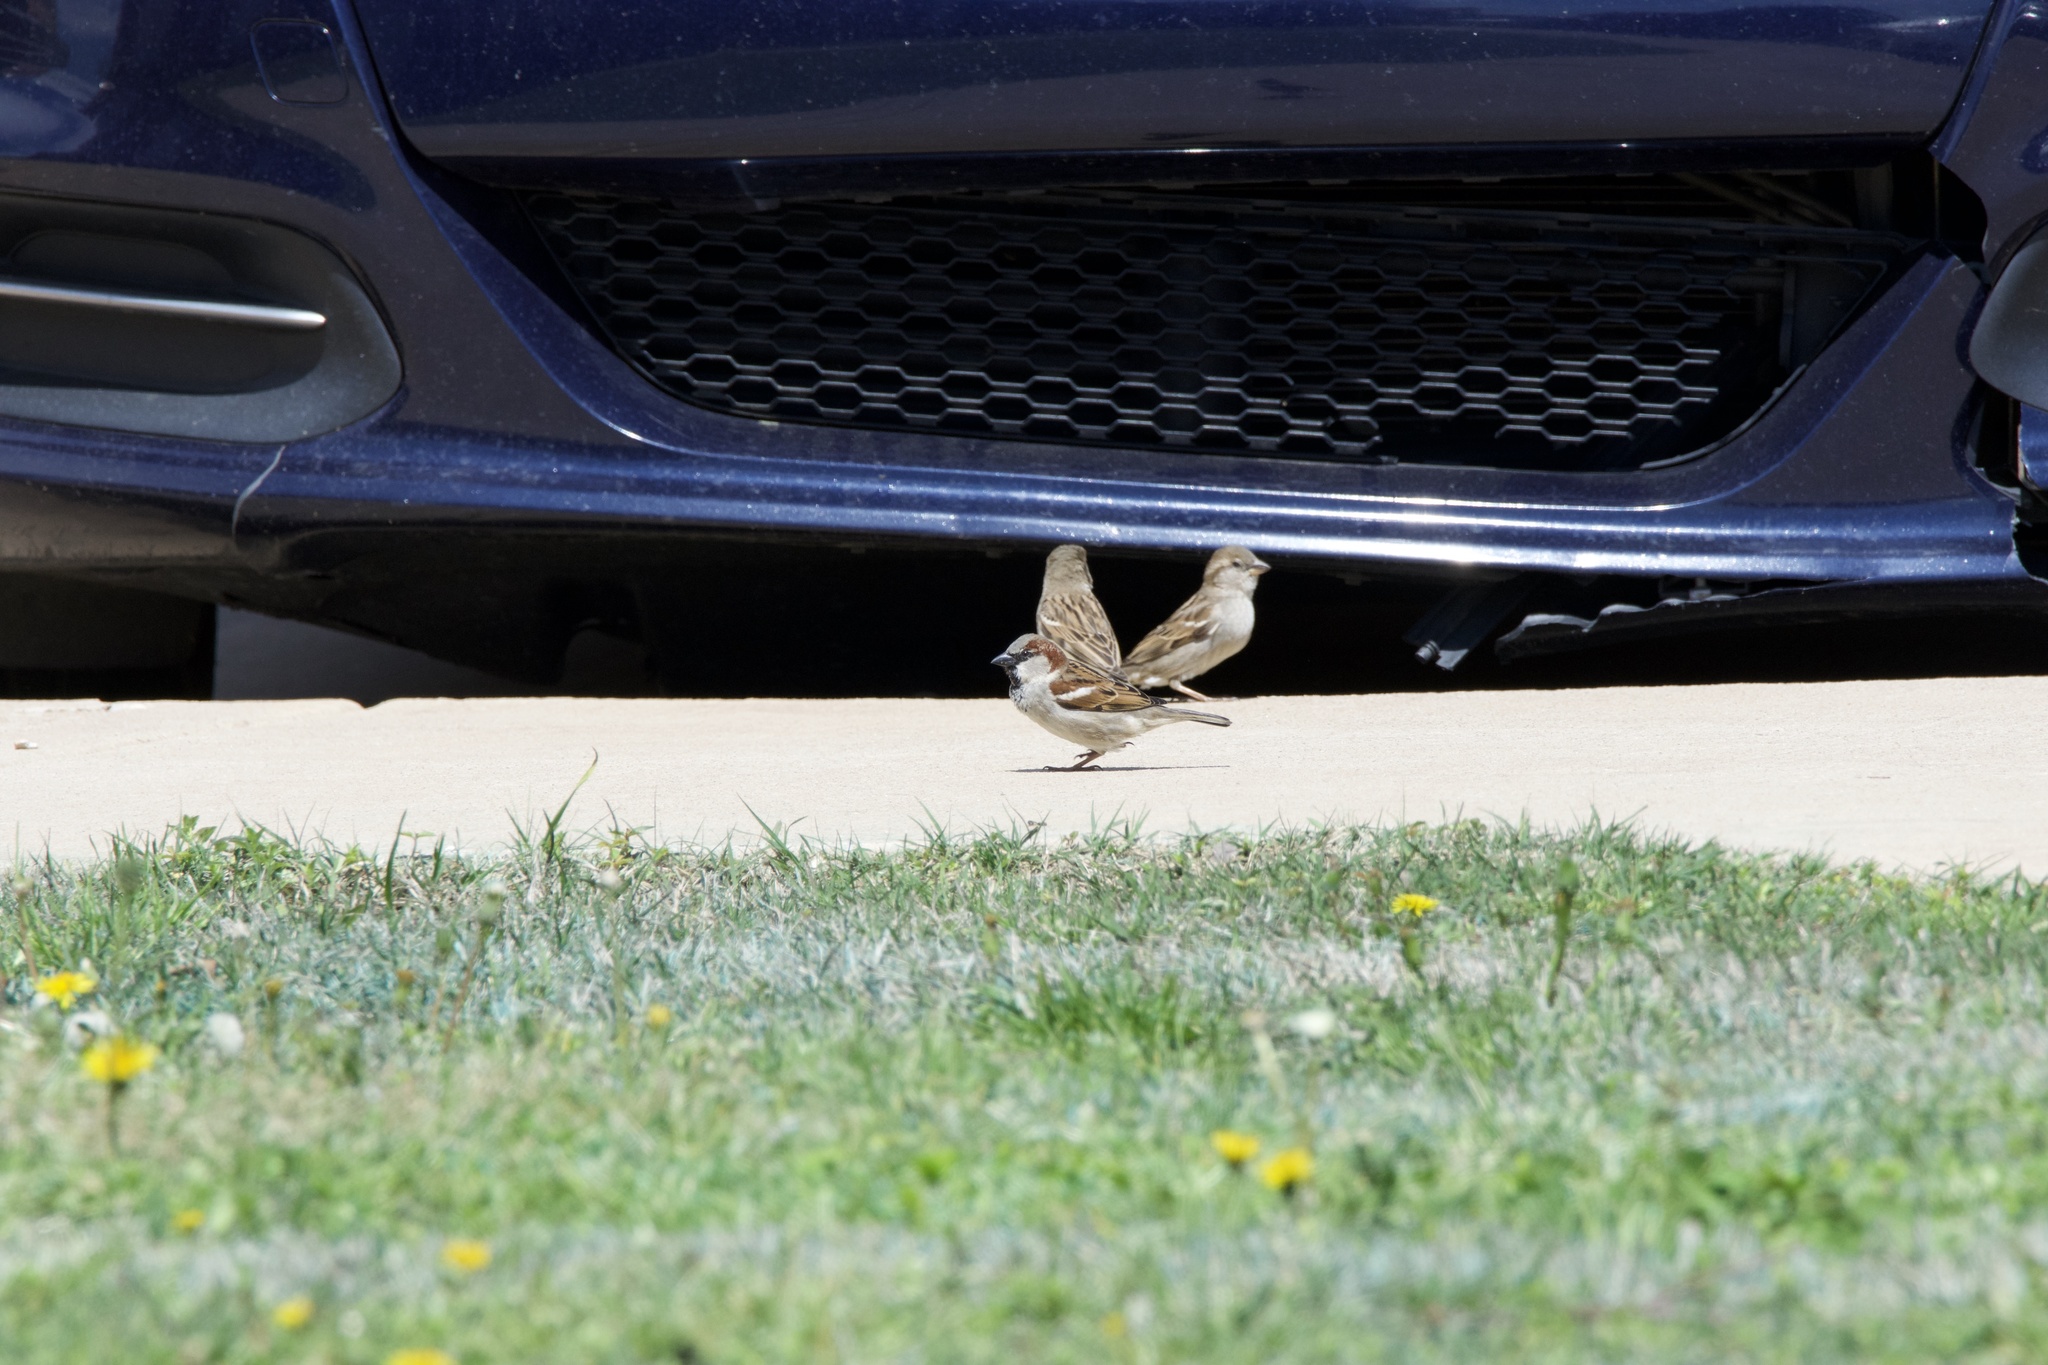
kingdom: Animalia
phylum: Chordata
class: Aves
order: Passeriformes
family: Passeridae
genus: Passer
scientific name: Passer domesticus
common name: House sparrow
